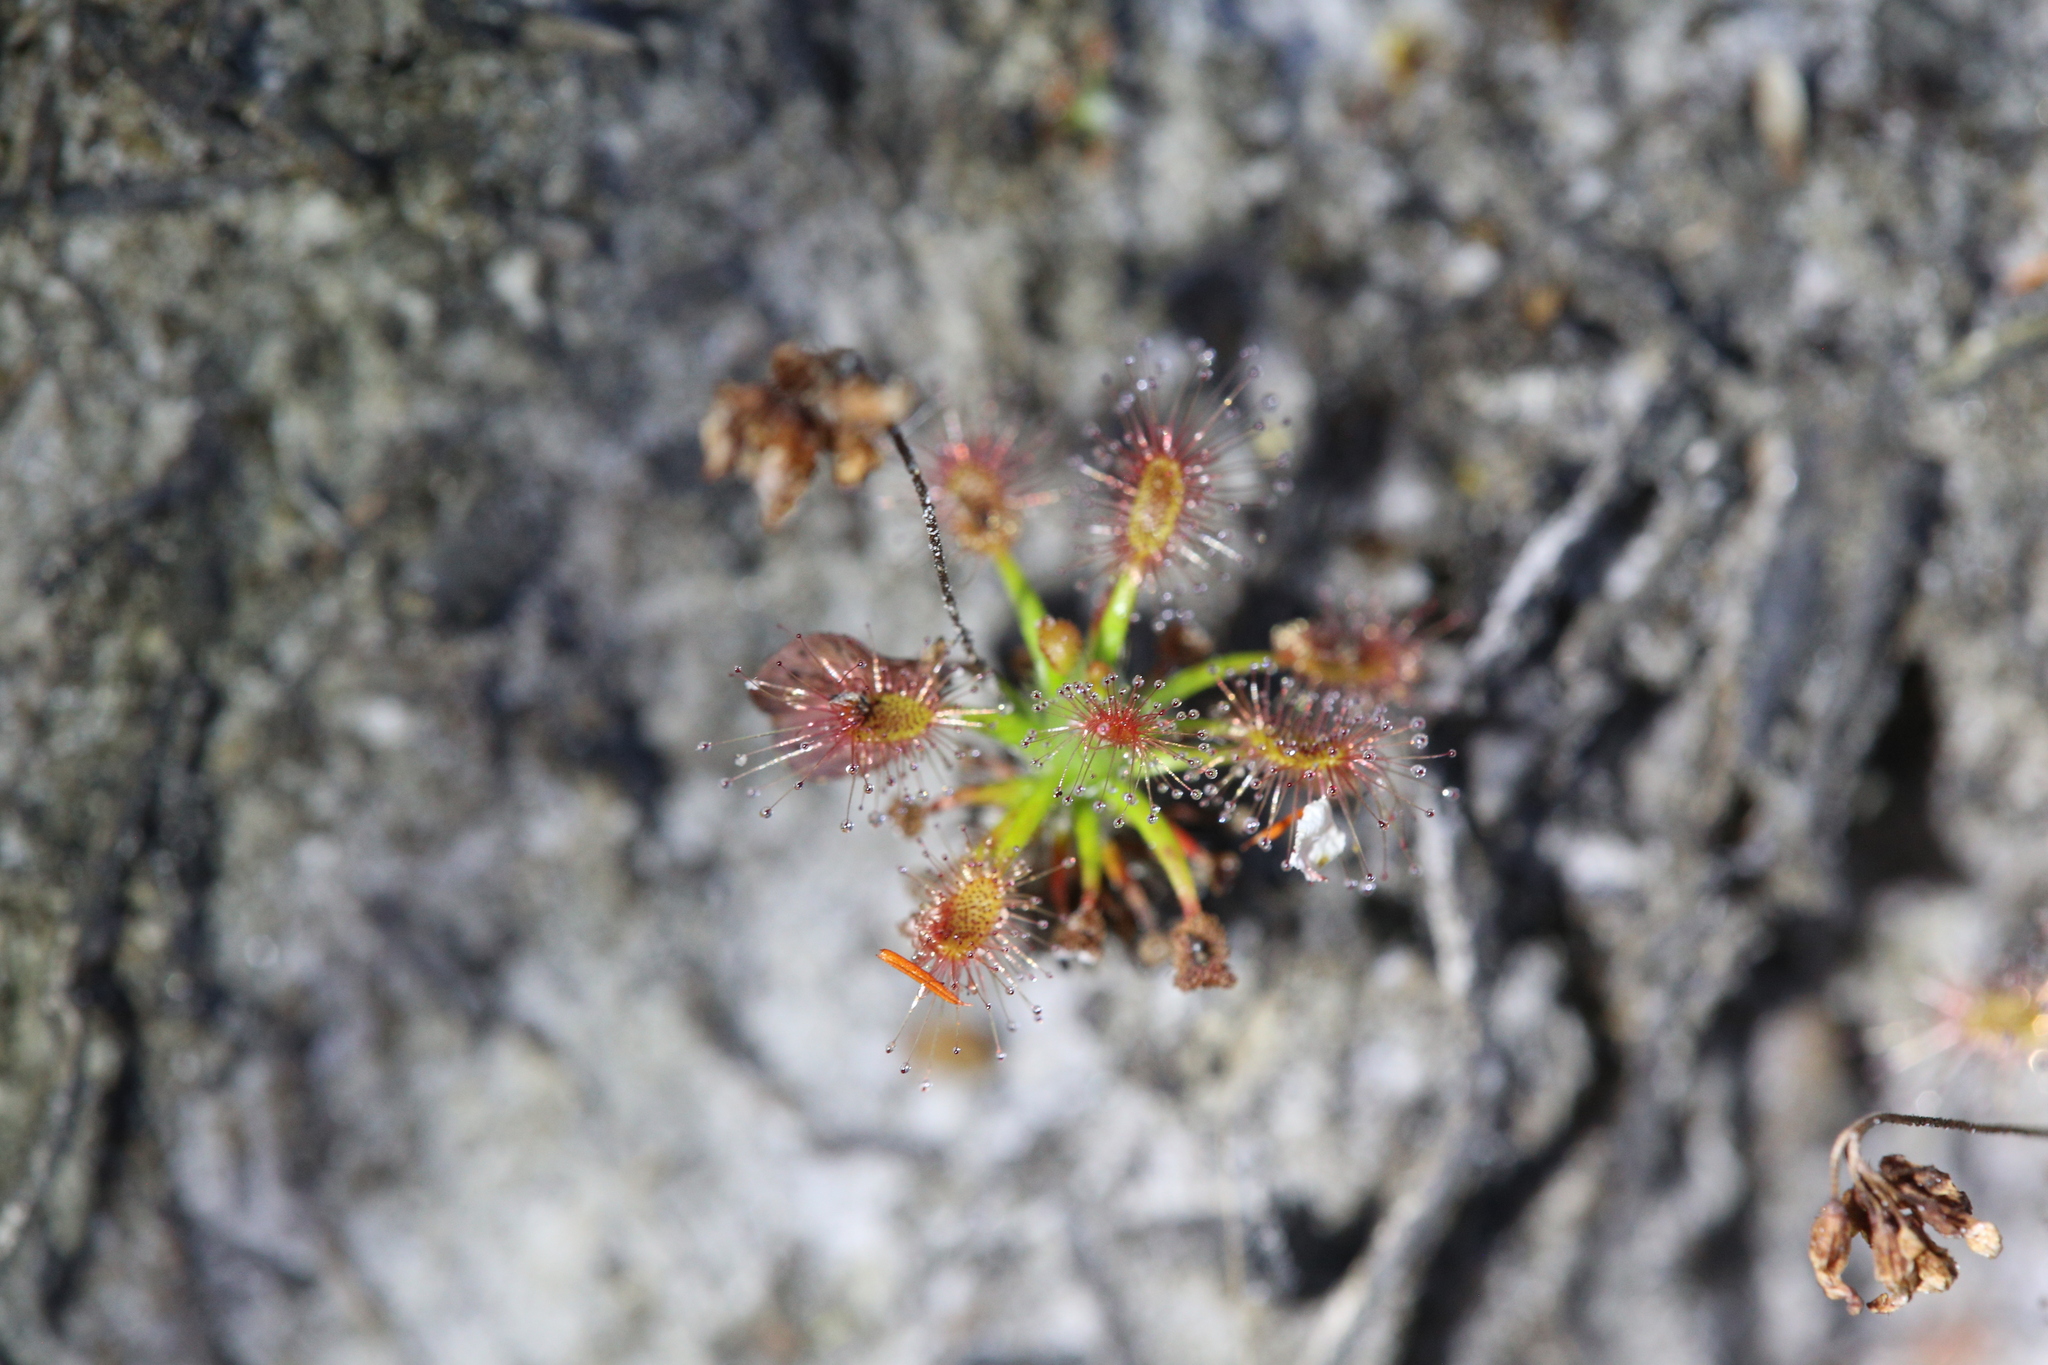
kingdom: Plantae
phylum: Tracheophyta
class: Magnoliopsida
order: Caryophyllales
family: Droseraceae
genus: Drosera
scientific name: Drosera verrucata
